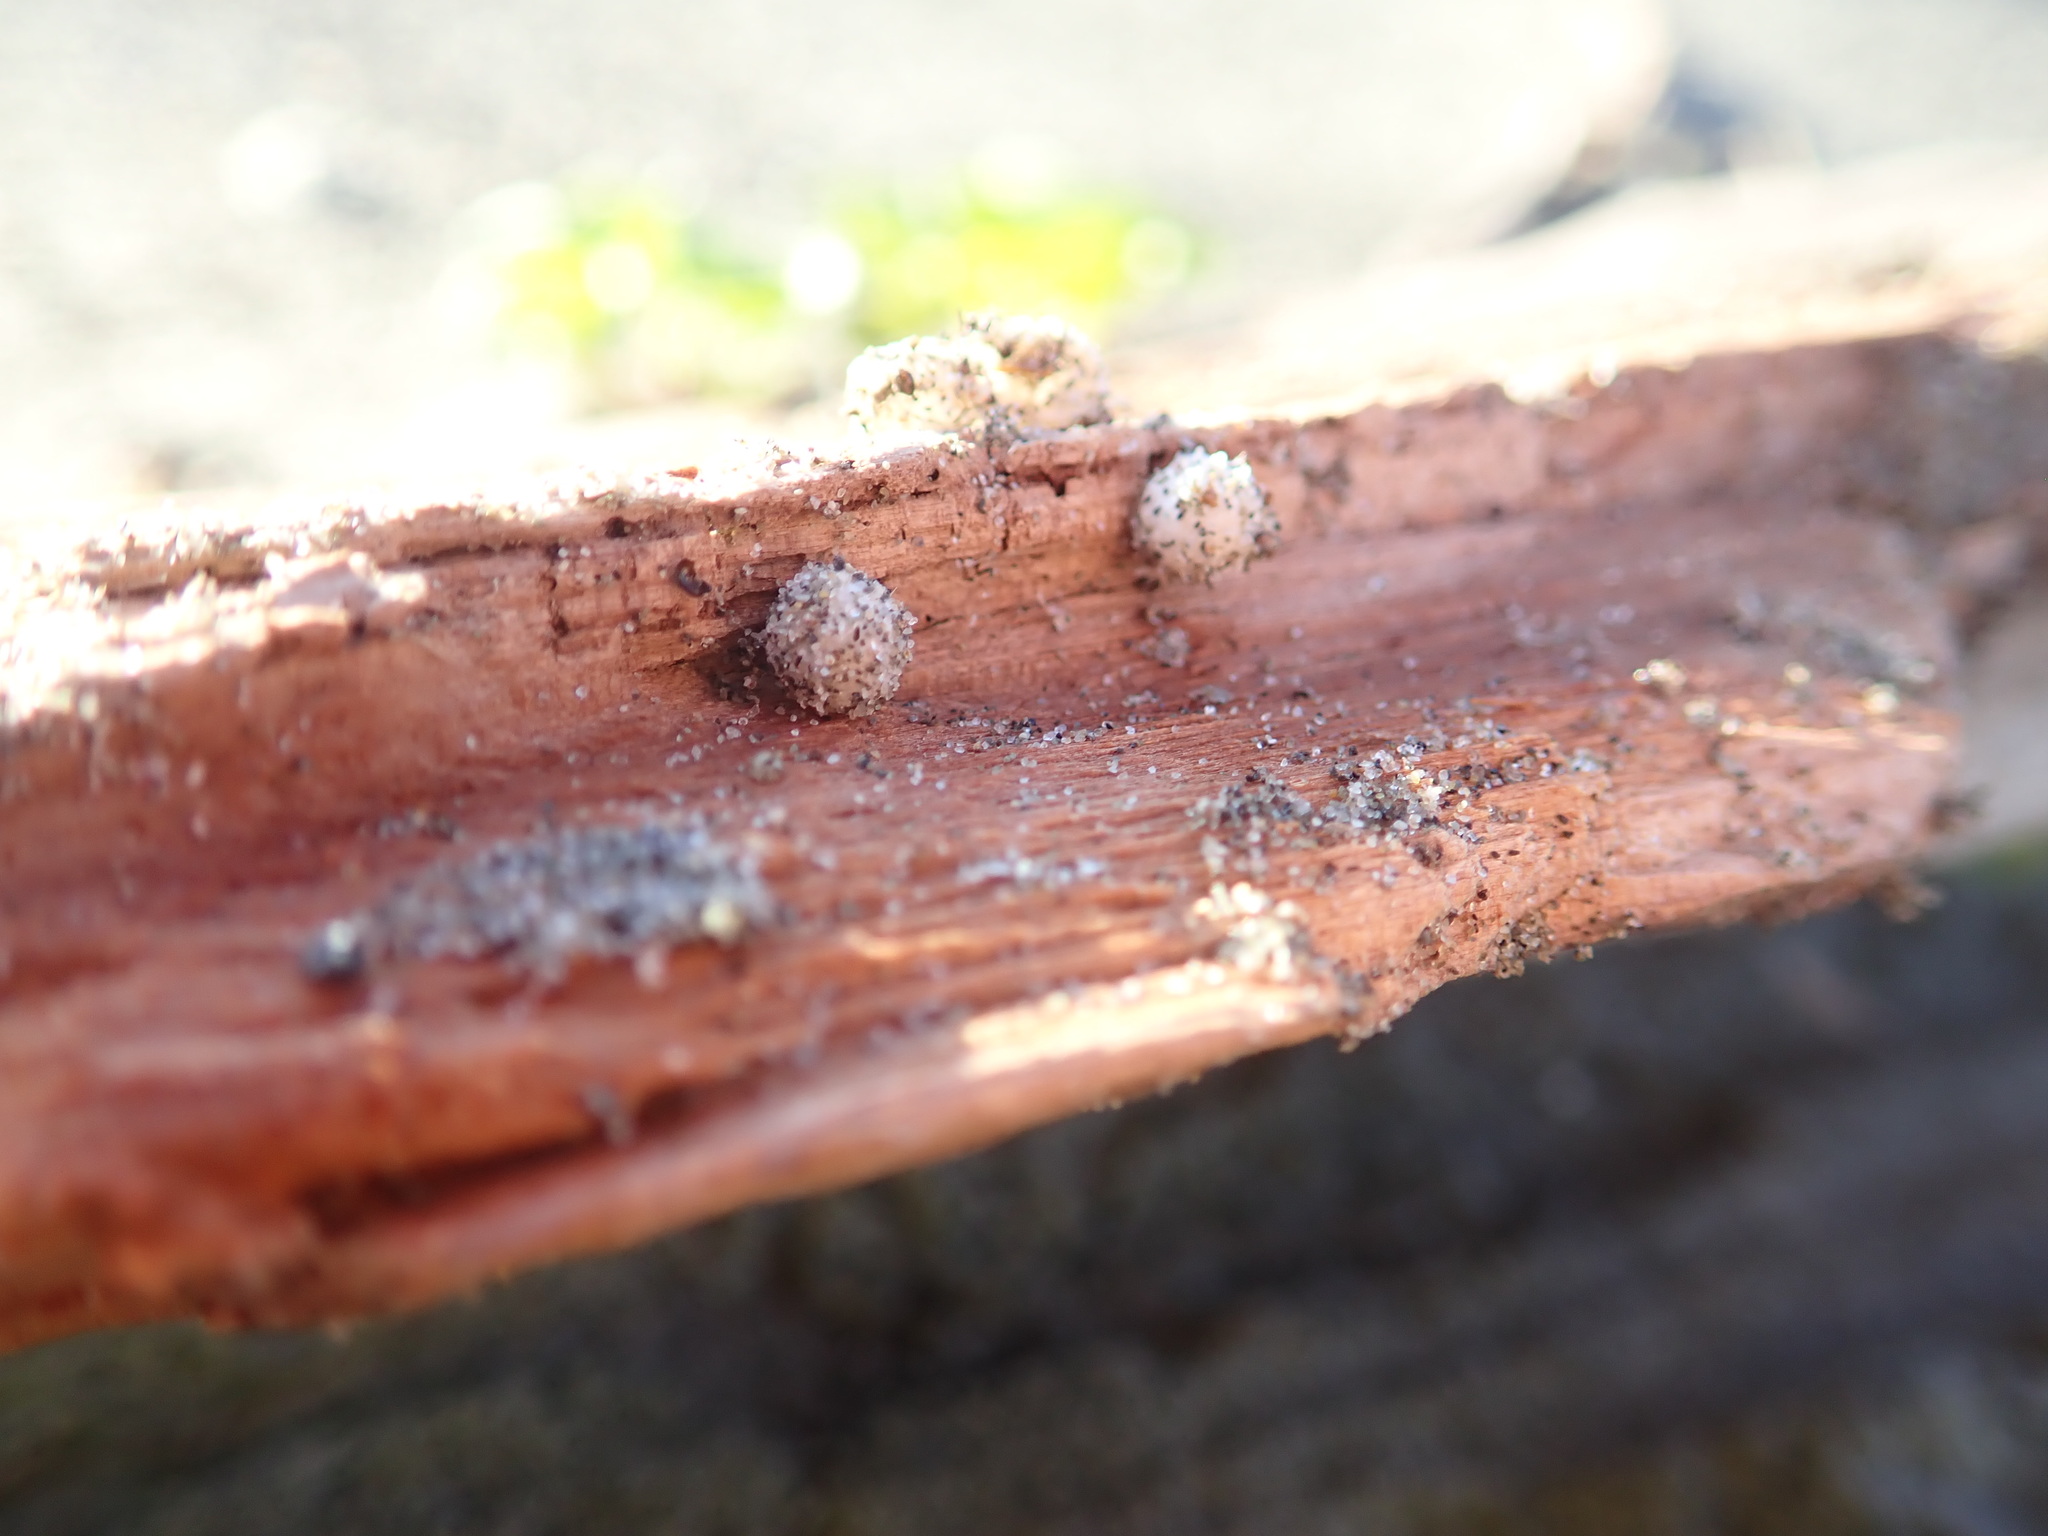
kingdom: Animalia
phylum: Arthropoda
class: Arachnida
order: Araneae
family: Theridiidae
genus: Steatoda
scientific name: Steatoda lepida
